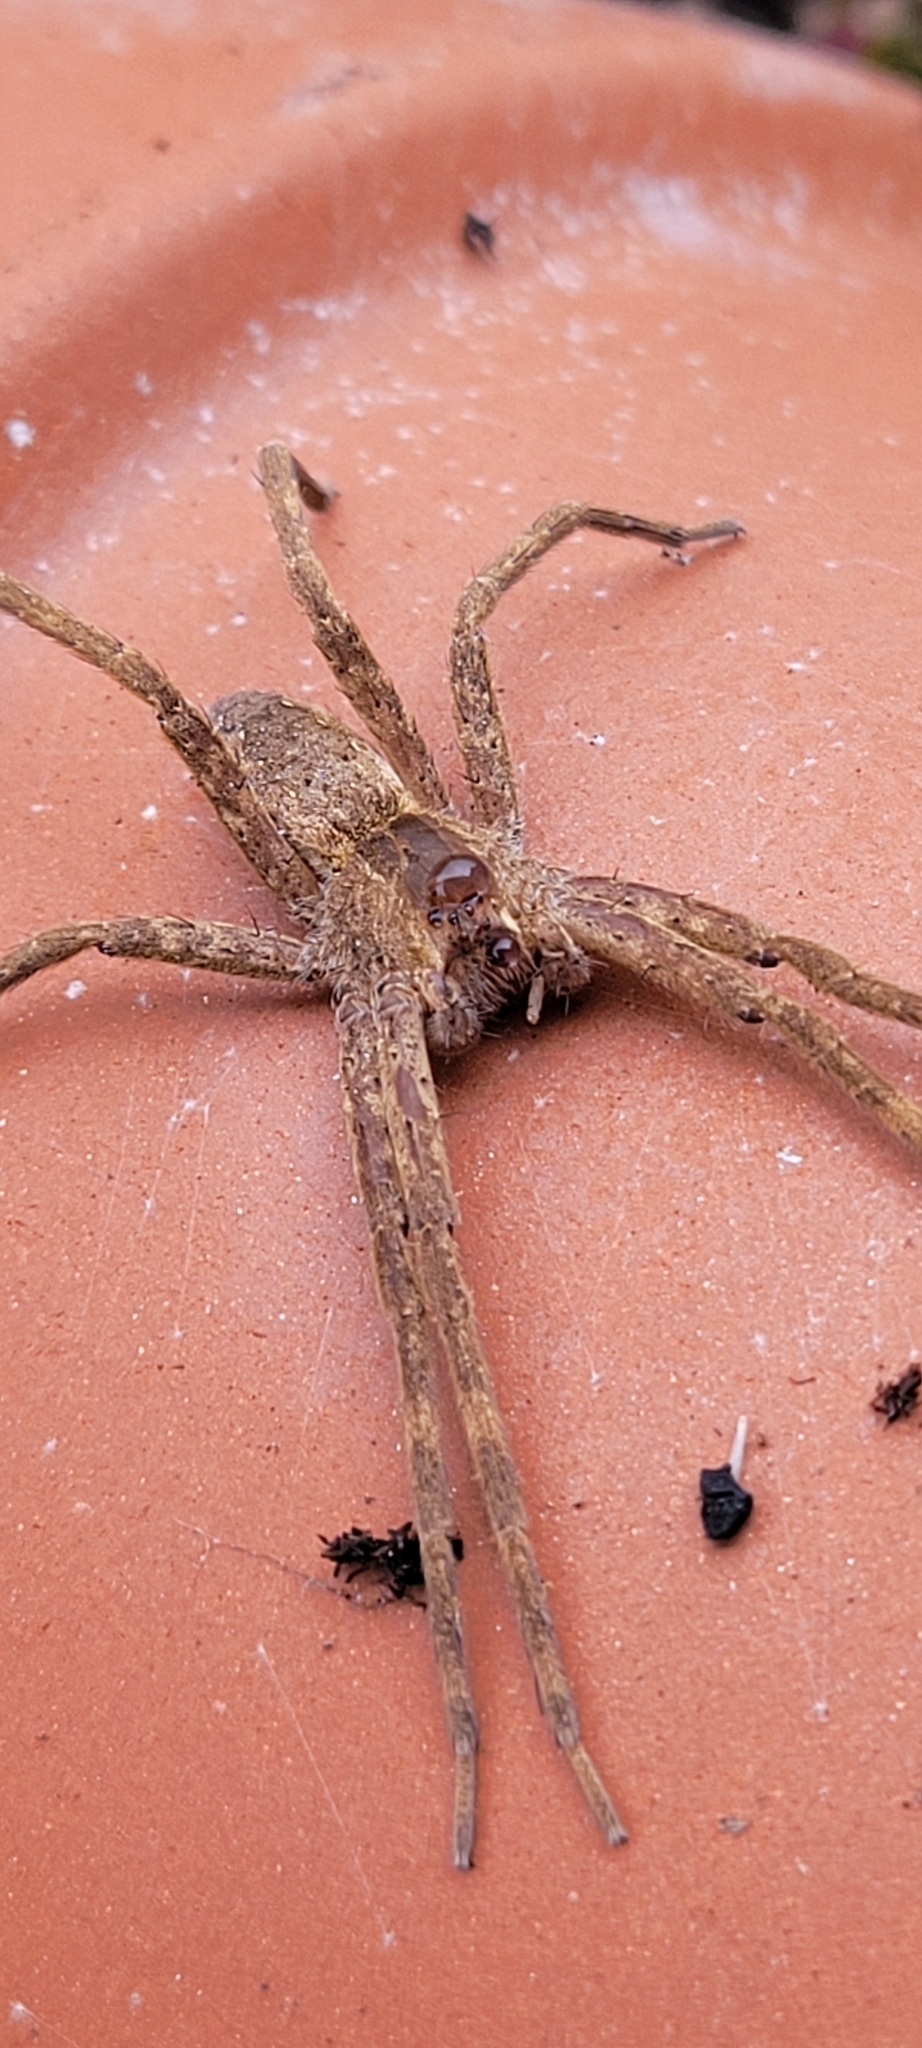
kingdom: Animalia
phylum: Arthropoda
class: Arachnida
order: Araneae
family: Pisauridae
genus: Pisaurina
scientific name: Pisaurina mira
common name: American nursery web spider
